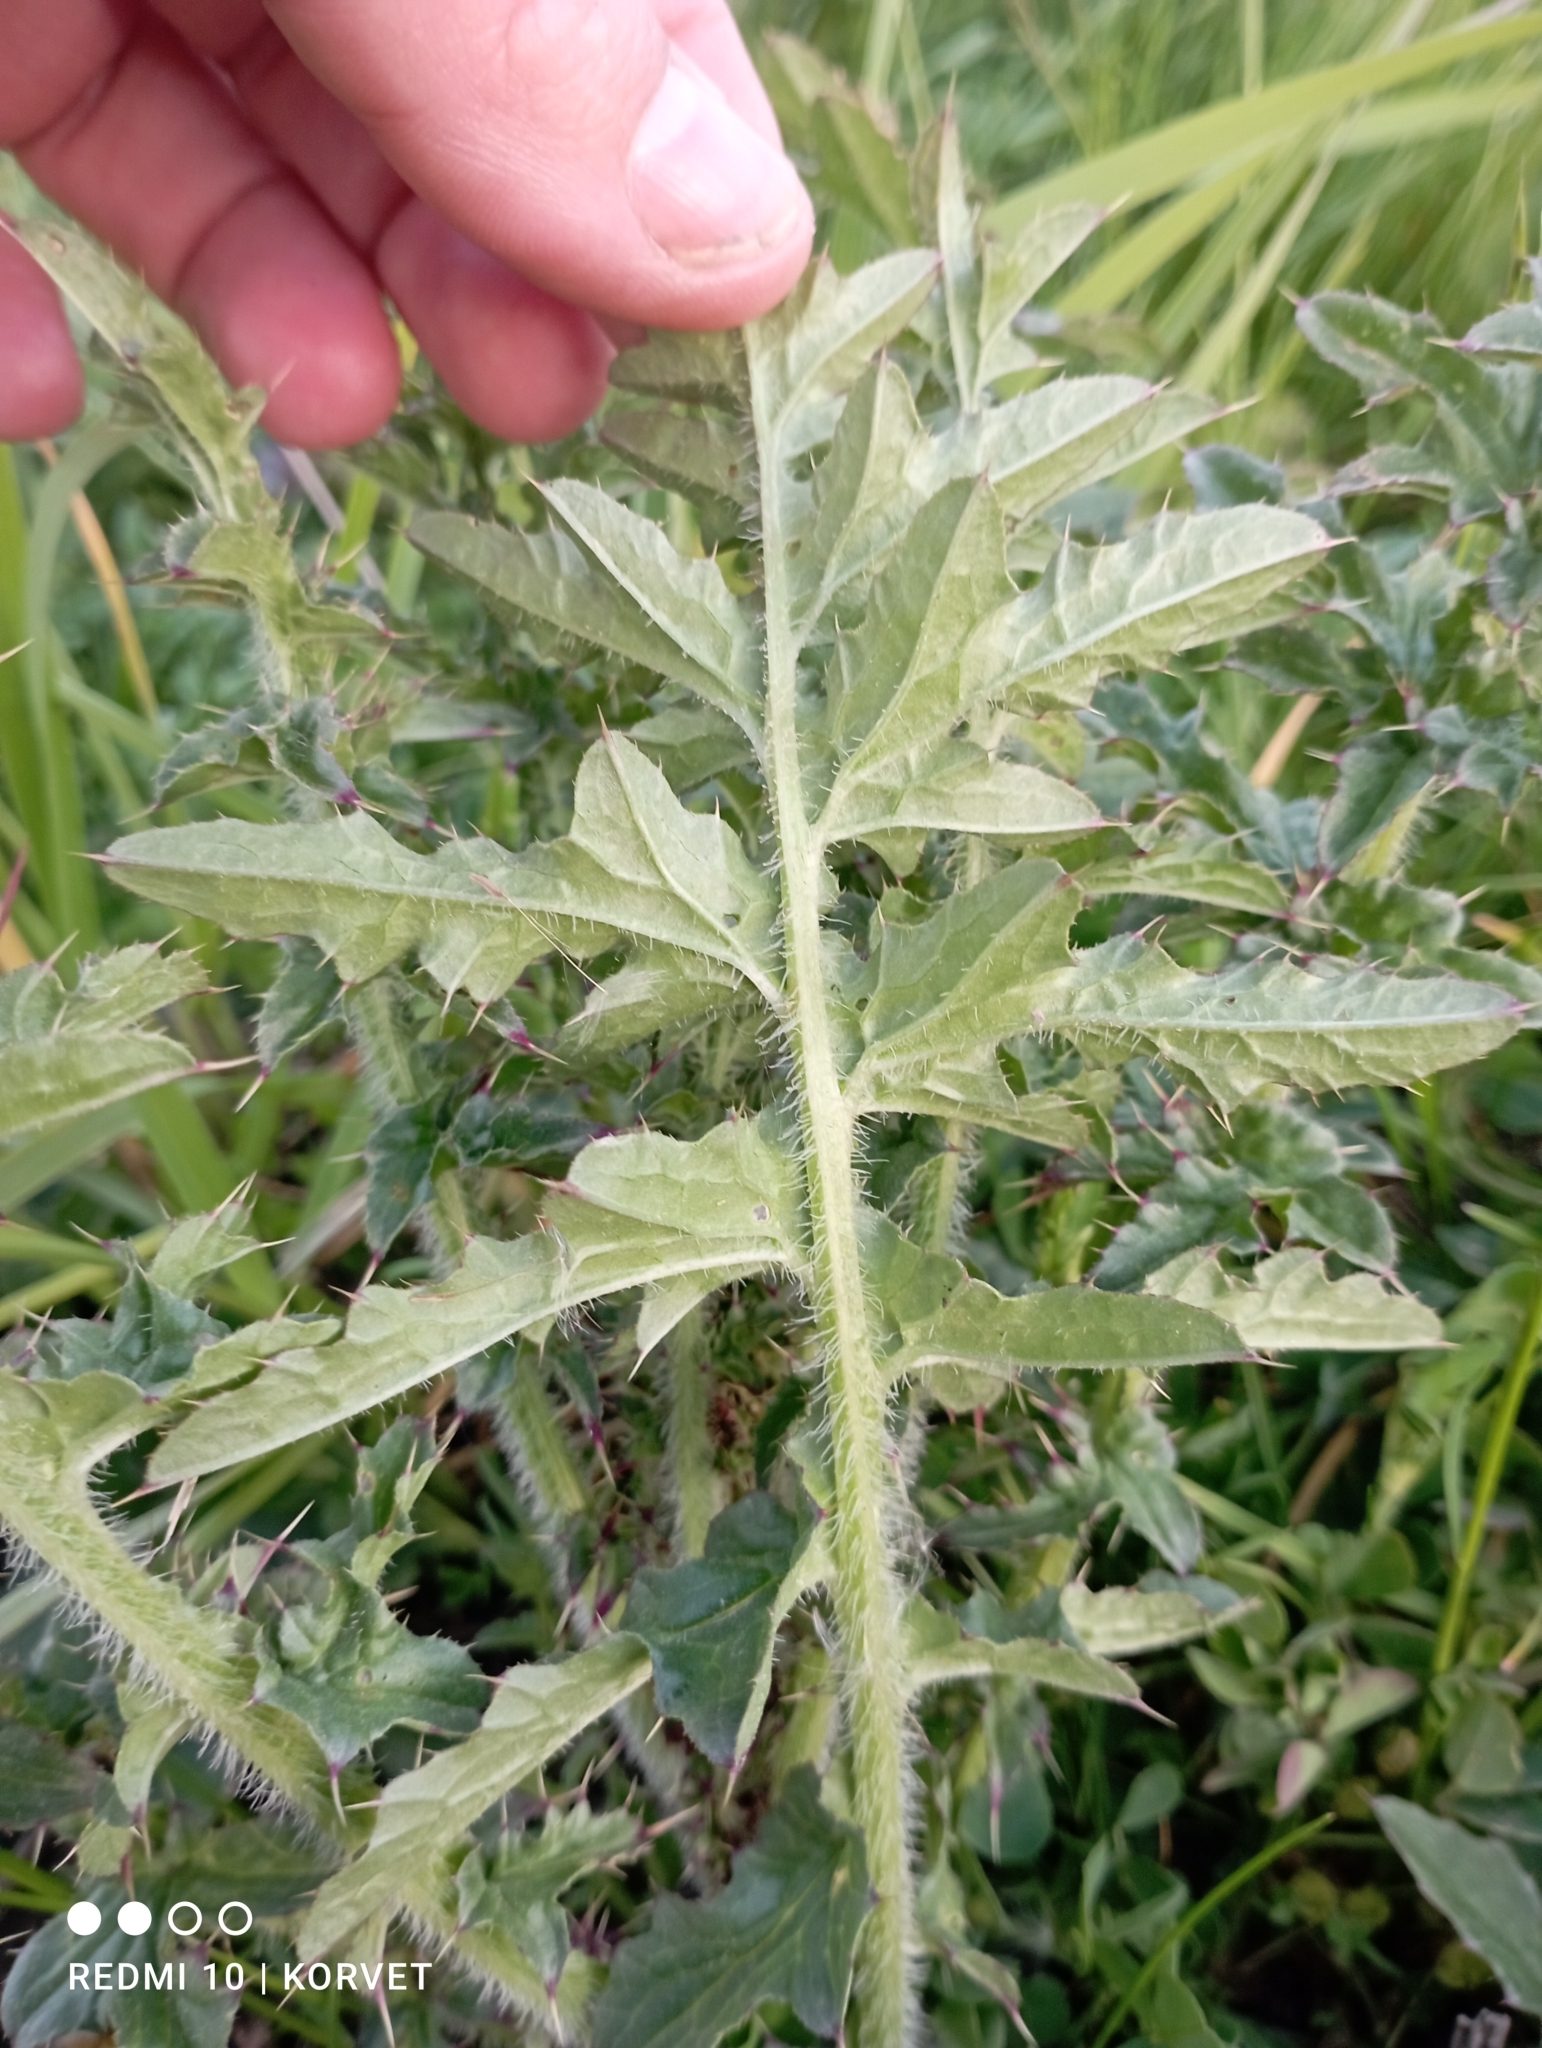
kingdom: Plantae
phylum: Tracheophyta
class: Magnoliopsida
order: Asterales
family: Asteraceae
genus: Carduus
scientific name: Carduus acanthoides
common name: Plumeless thistle
